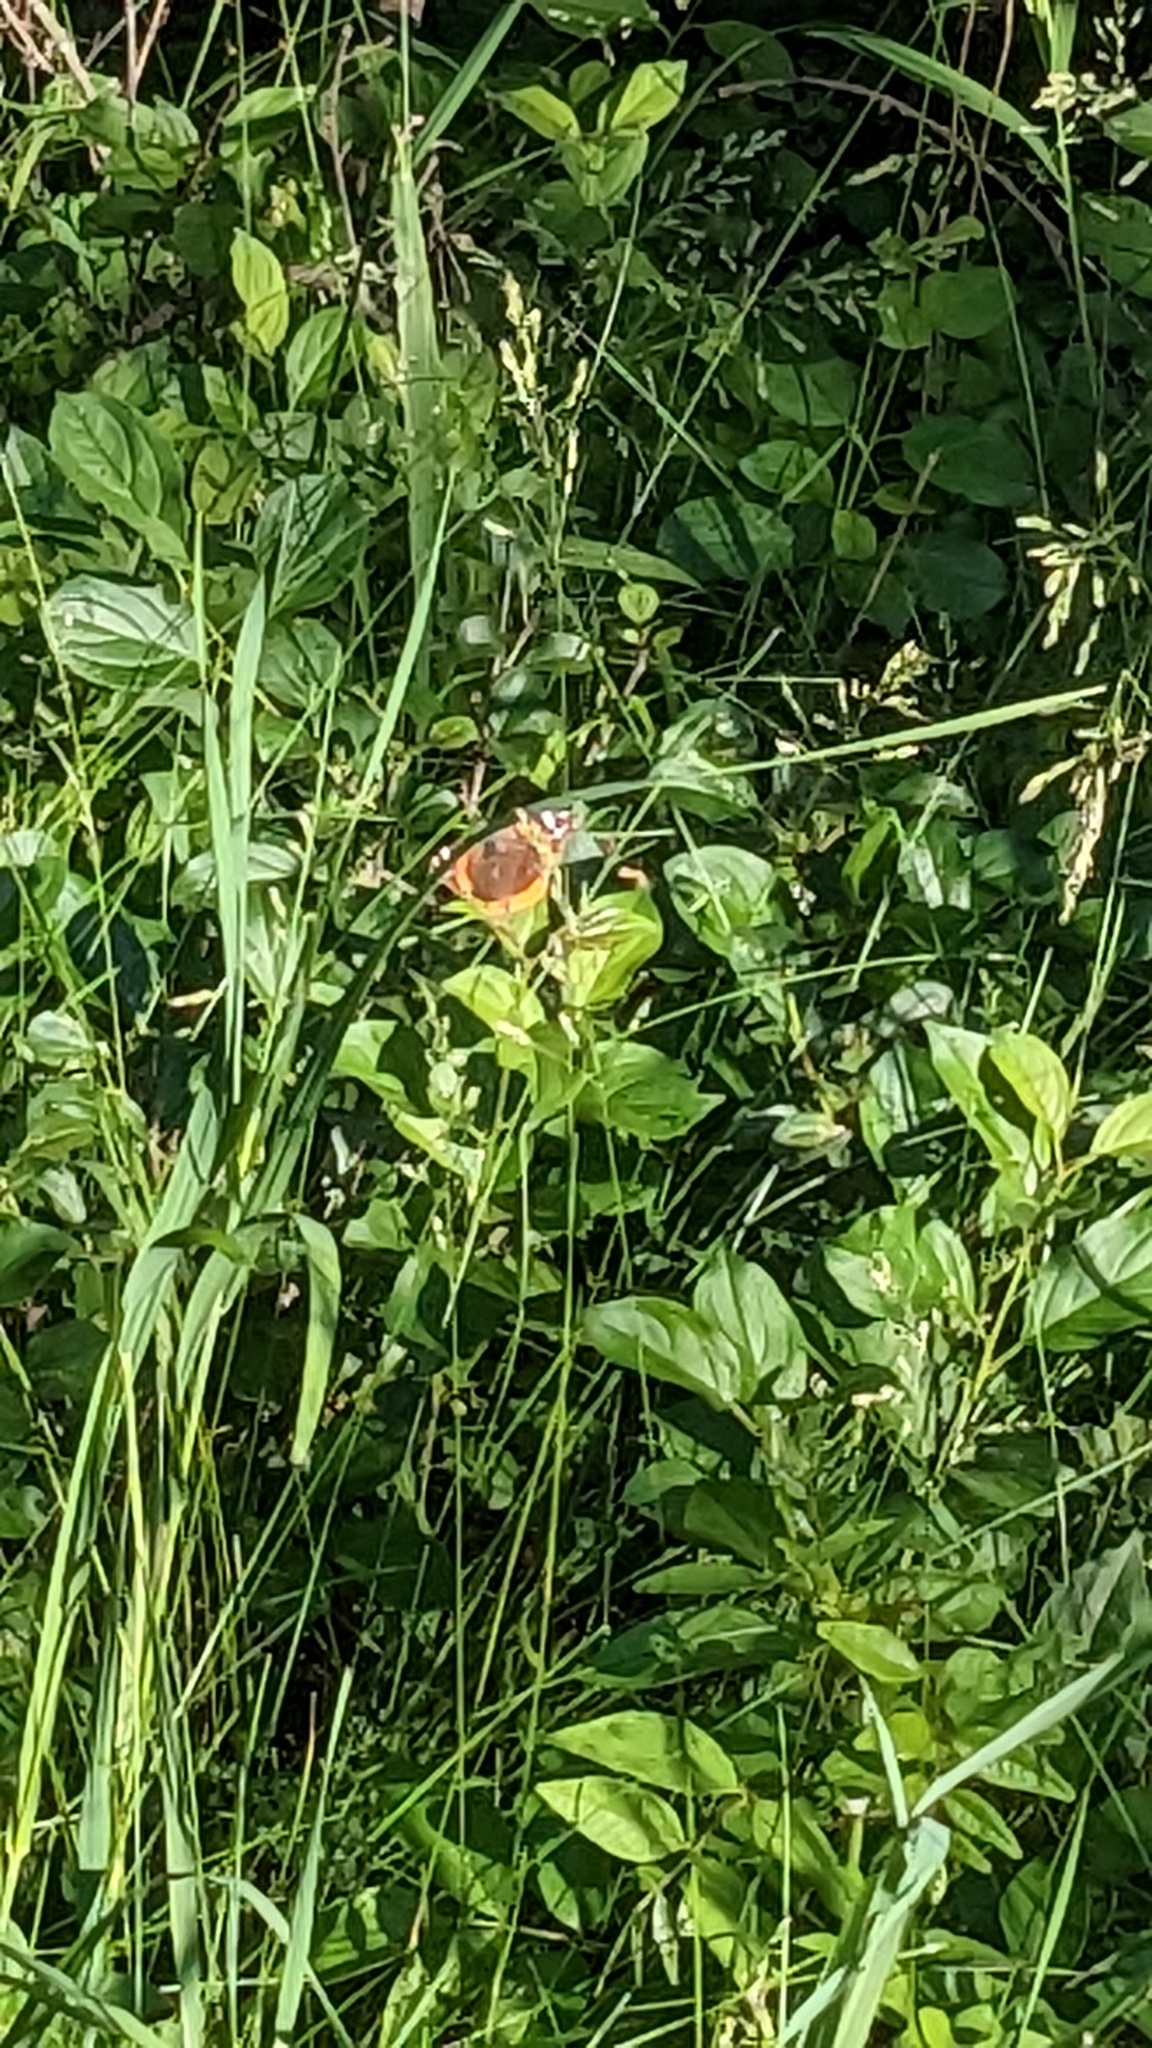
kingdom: Animalia
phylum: Arthropoda
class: Insecta
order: Lepidoptera
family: Nymphalidae
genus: Vanessa
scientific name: Vanessa atalanta
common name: Red admiral
